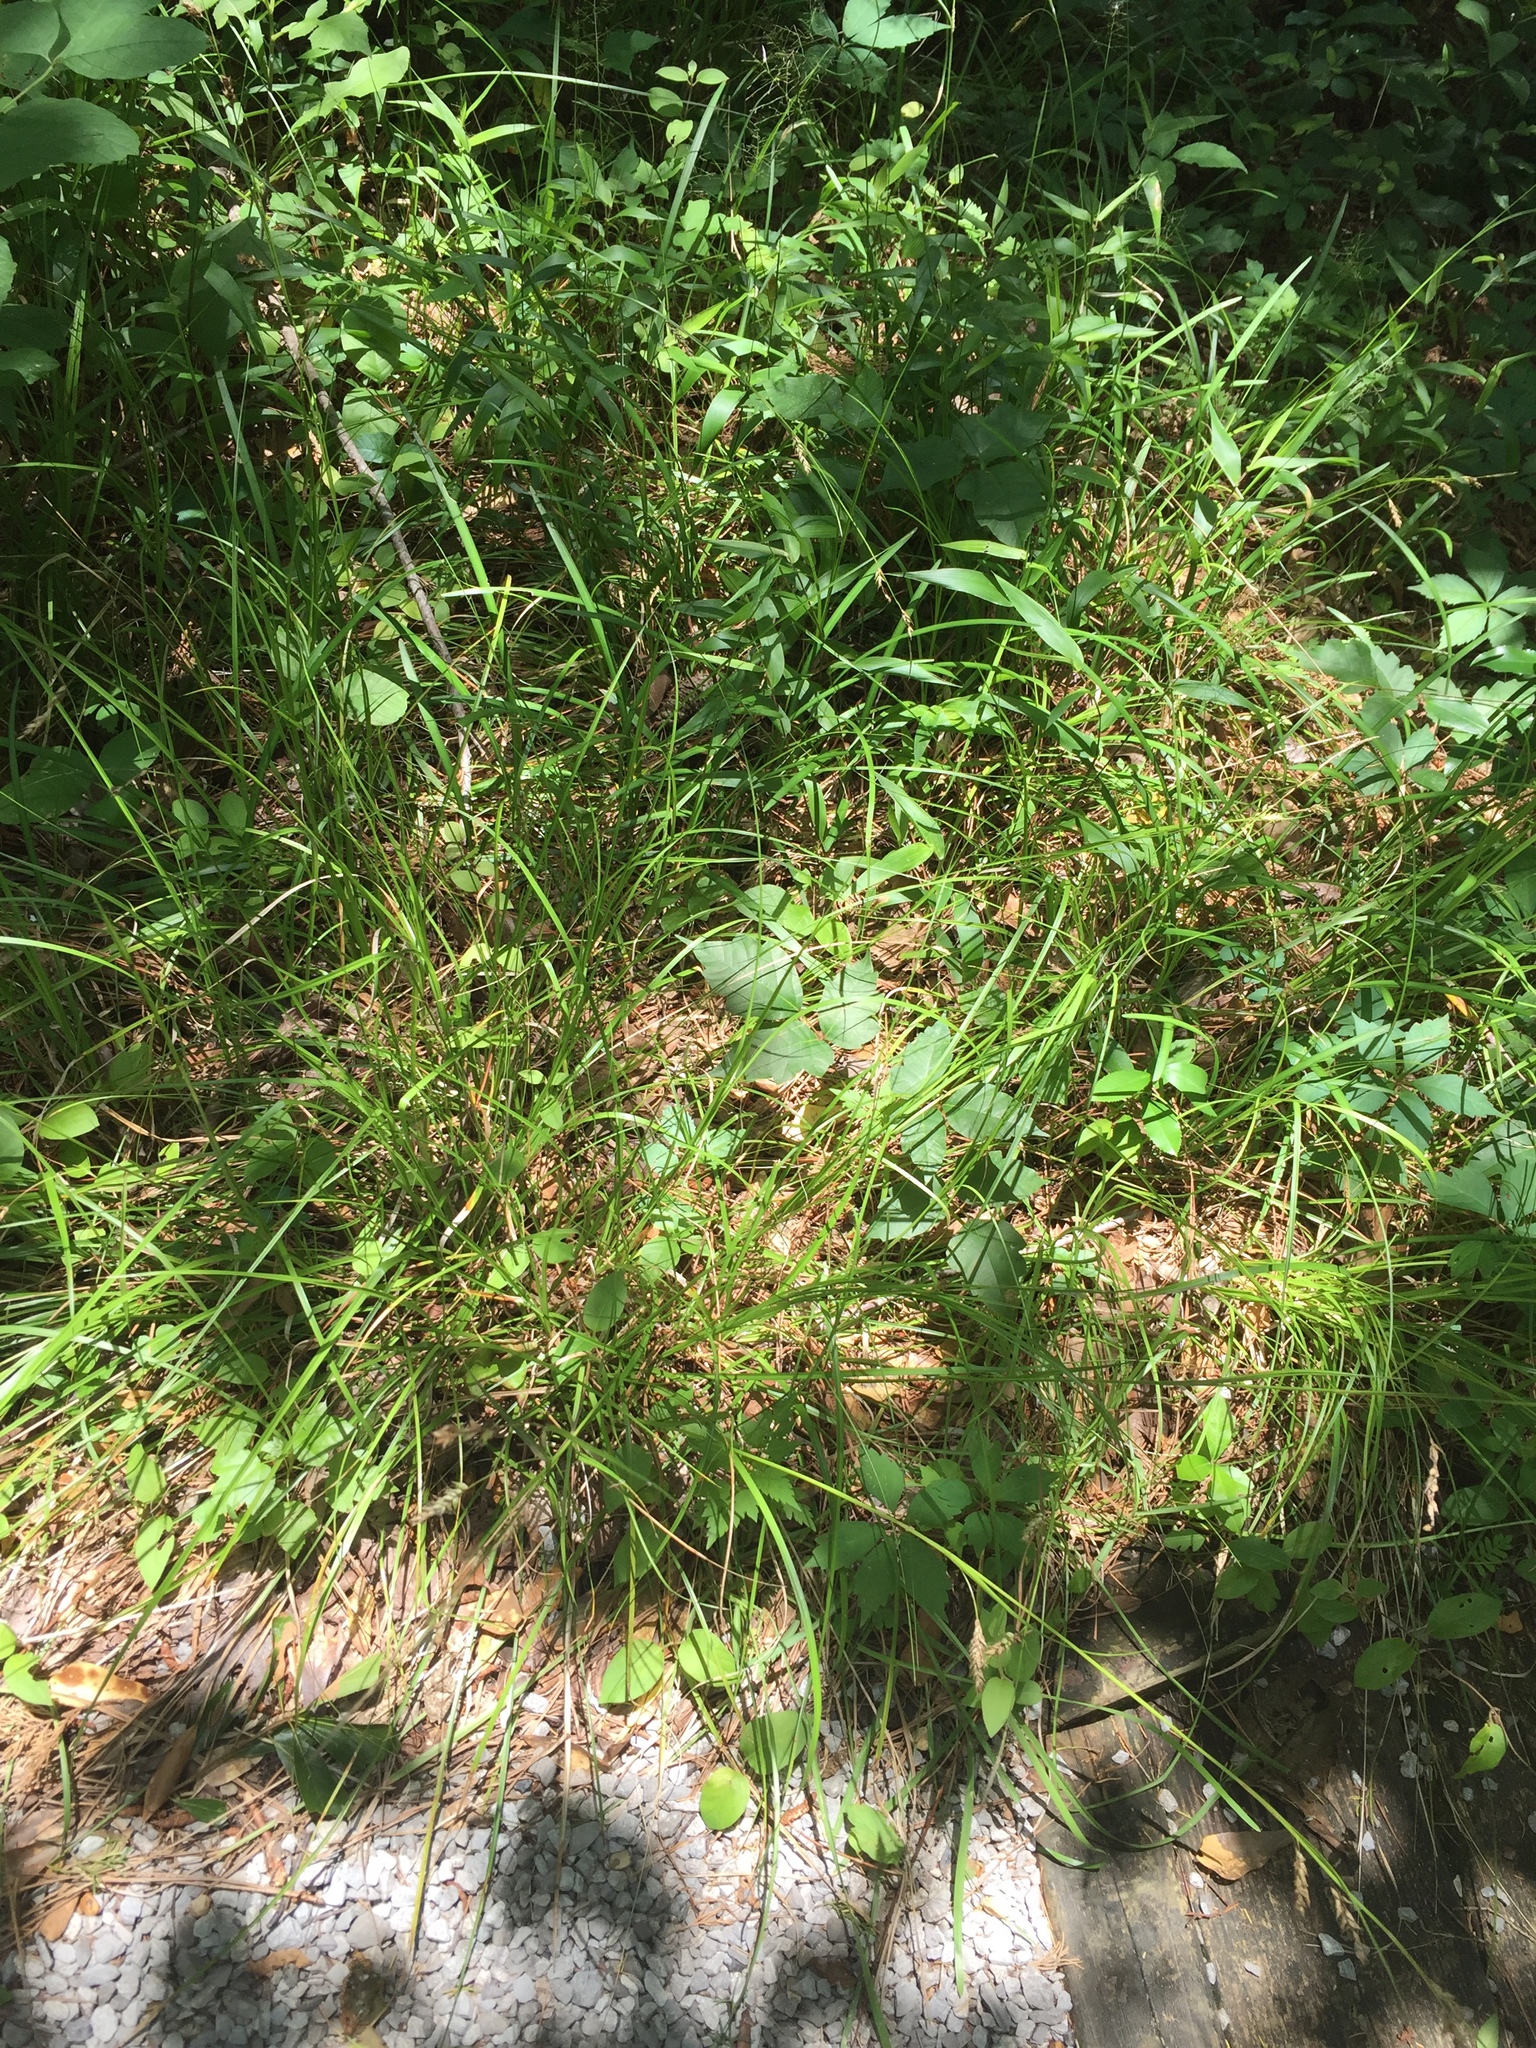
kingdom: Plantae
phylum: Tracheophyta
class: Liliopsida
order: Poales
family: Cyperaceae
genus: Carex
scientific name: Carex cherokeensis
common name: Cherokee sedge
